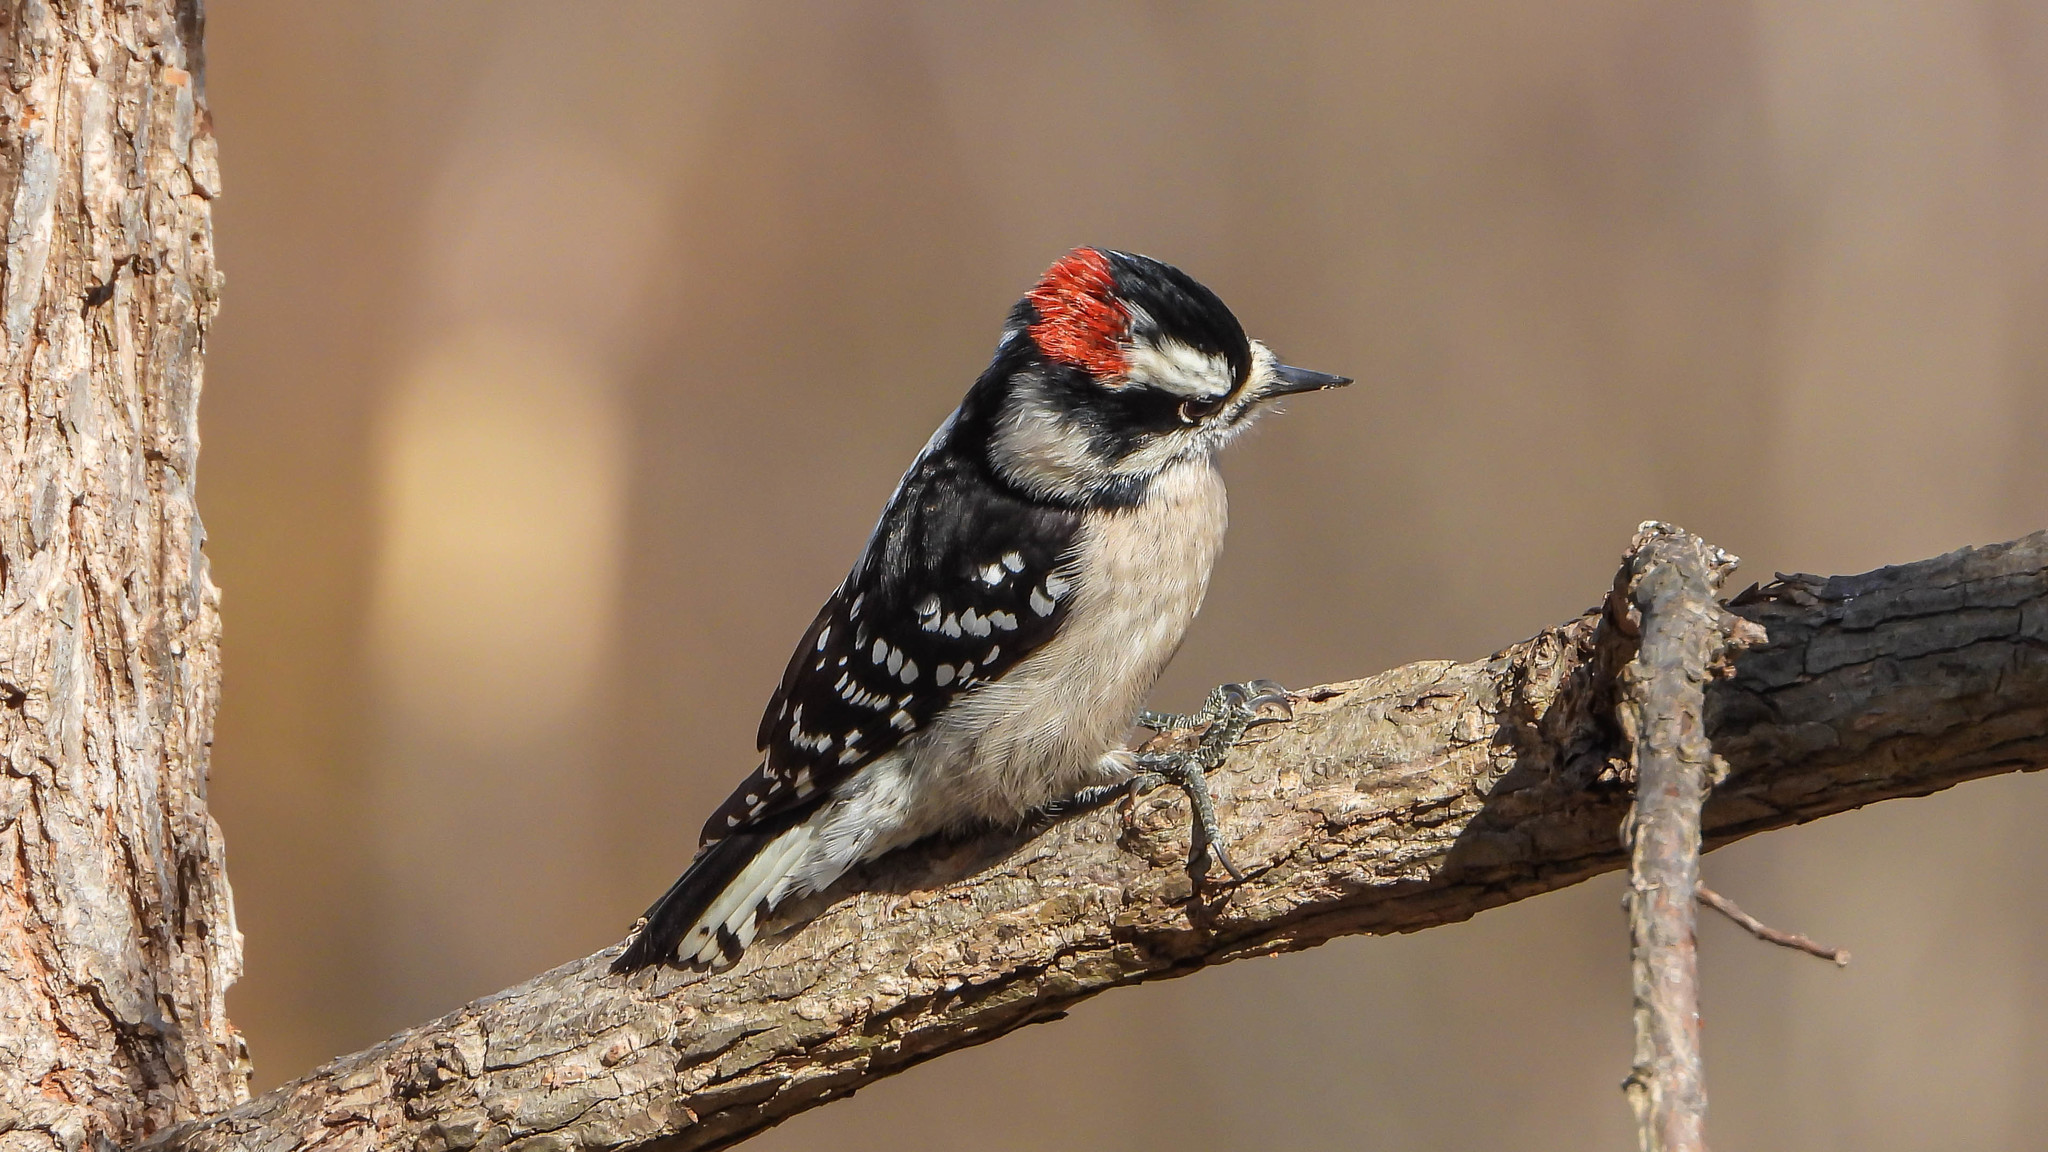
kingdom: Animalia
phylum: Chordata
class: Aves
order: Piciformes
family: Picidae
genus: Dryobates
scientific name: Dryobates pubescens
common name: Downy woodpecker
